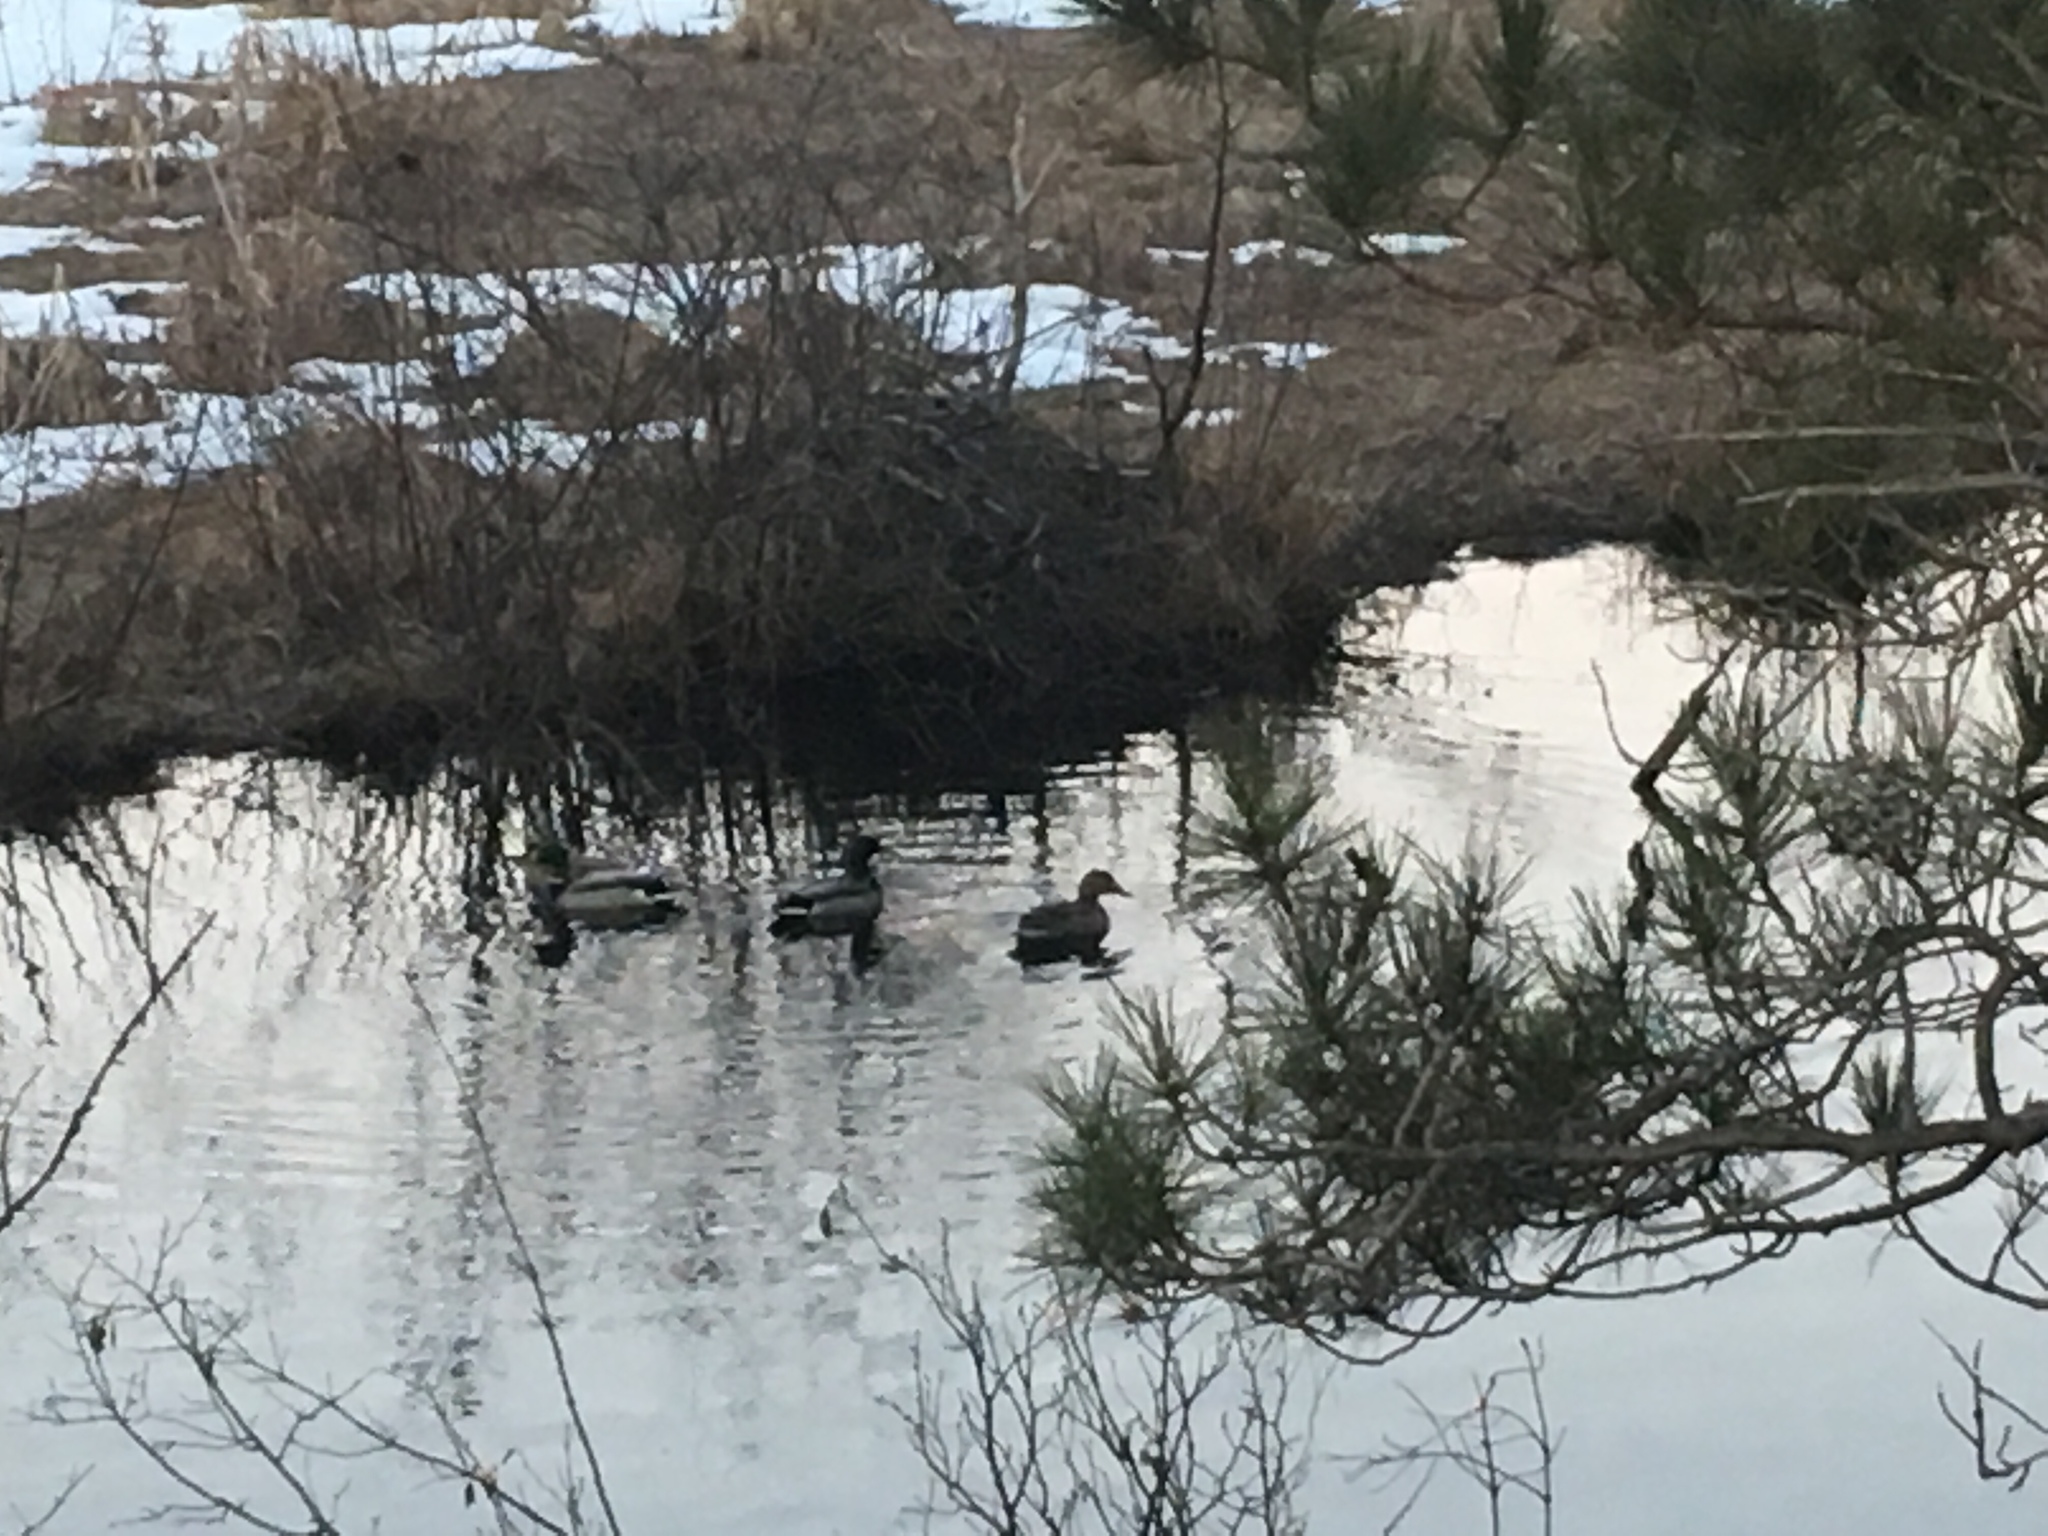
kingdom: Animalia
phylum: Chordata
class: Aves
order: Anseriformes
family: Anatidae
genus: Anas
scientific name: Anas platyrhynchos
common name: Mallard
